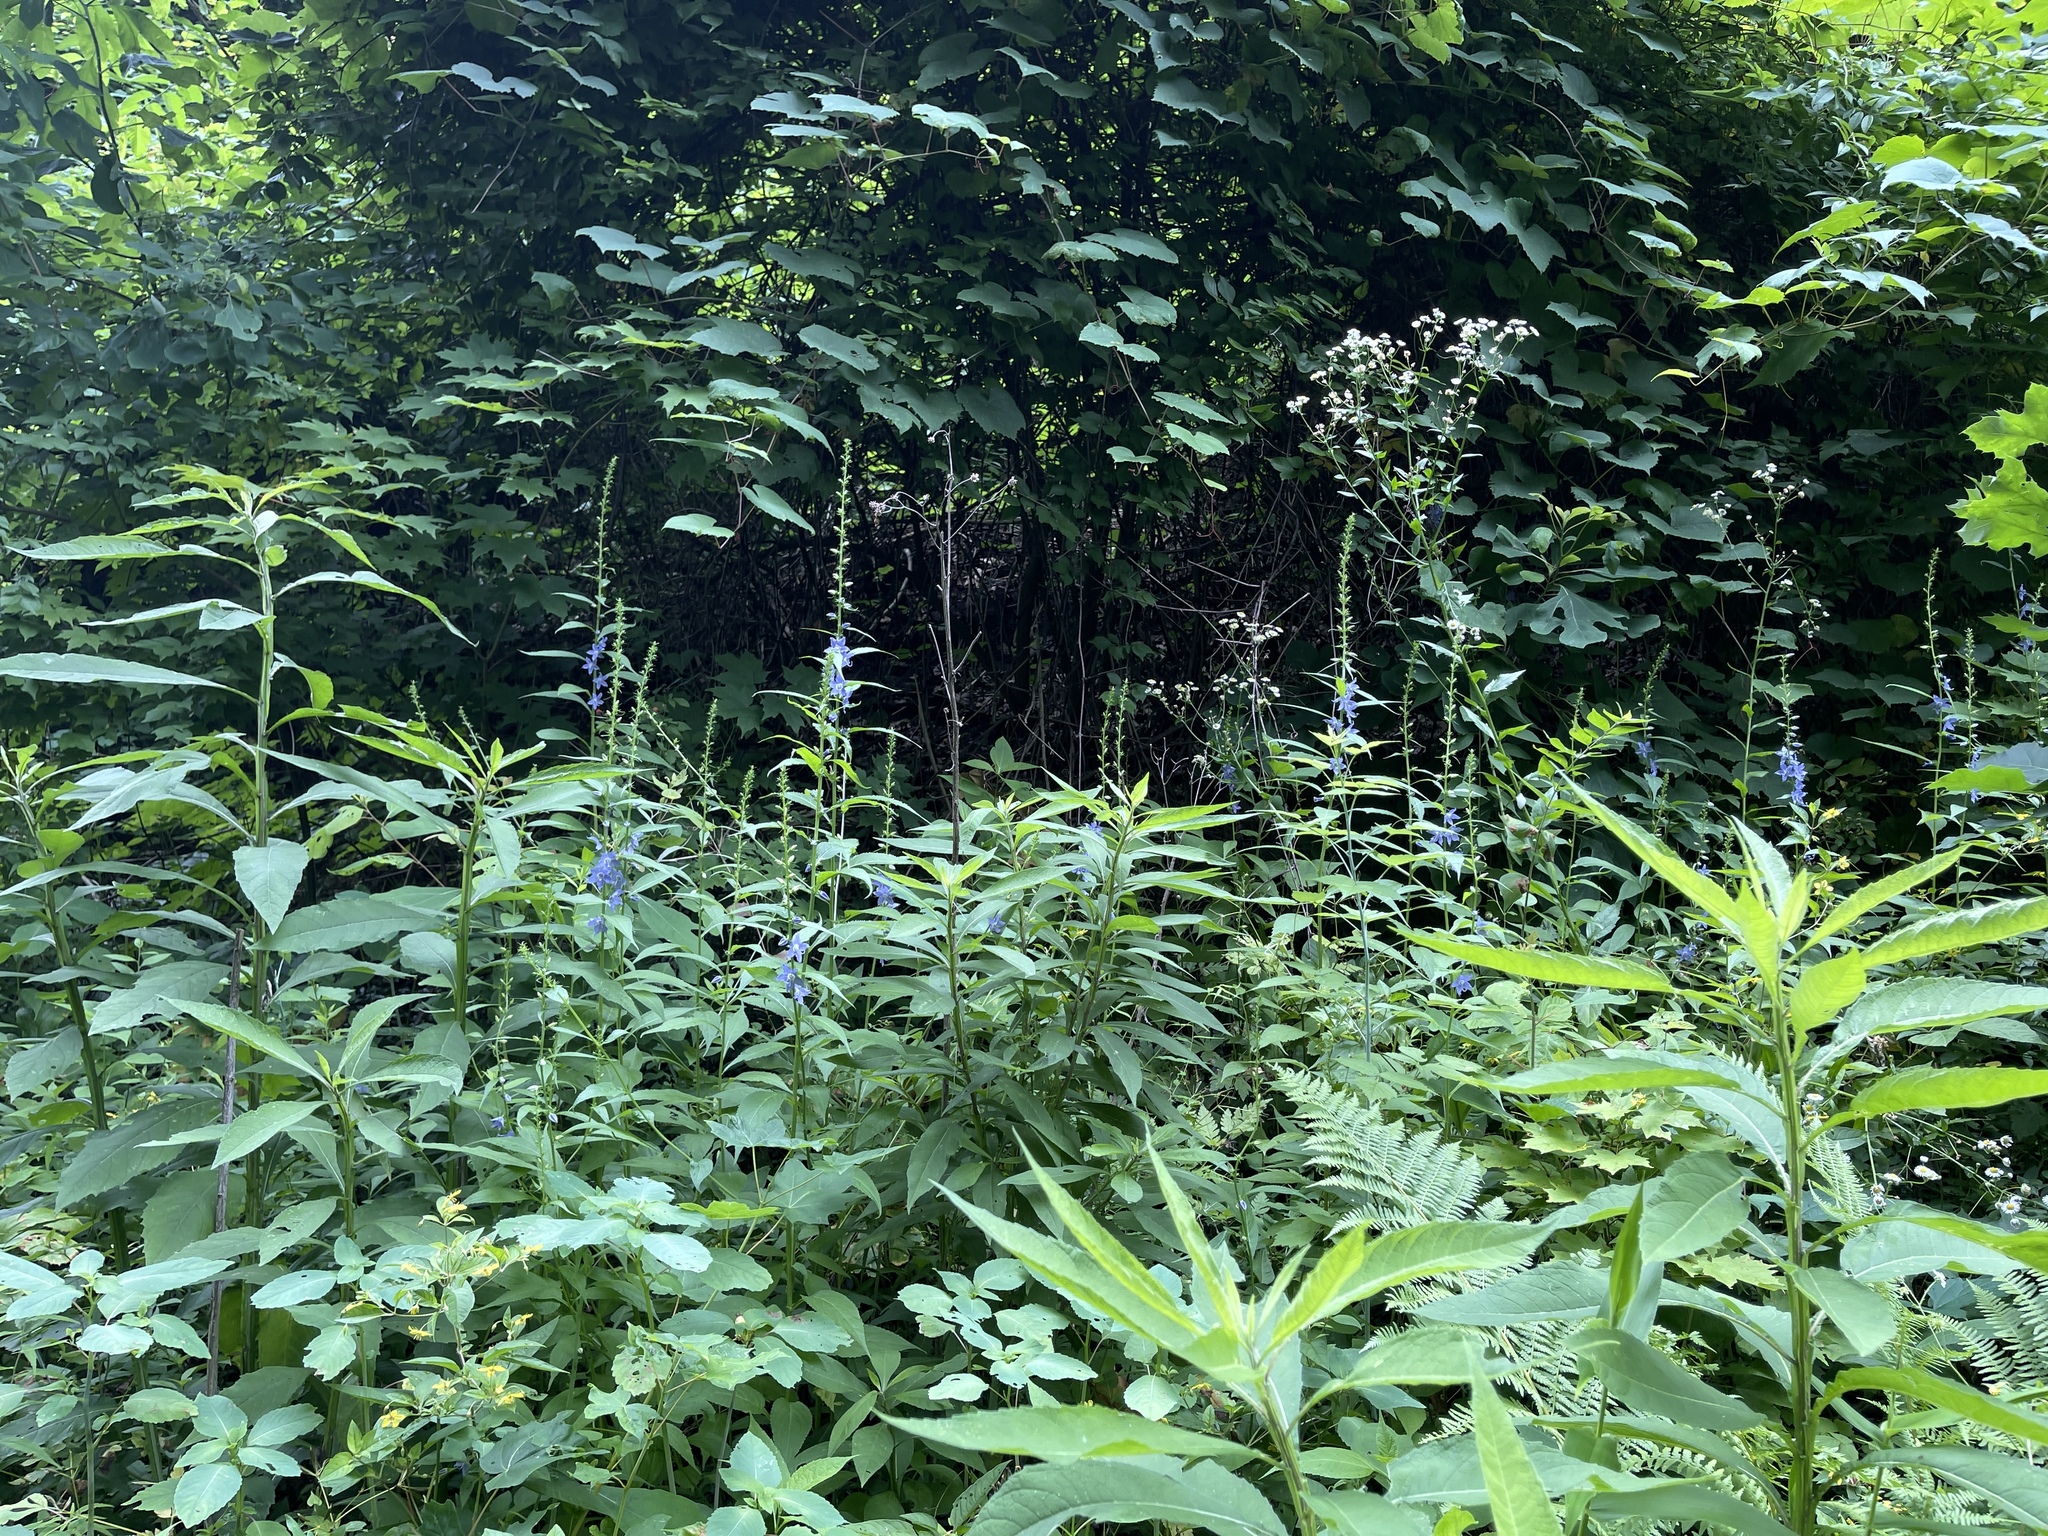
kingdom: Plantae
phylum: Tracheophyta
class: Magnoliopsida
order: Asterales
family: Campanulaceae
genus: Campanulastrum
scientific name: Campanulastrum americanum
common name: American bellflower
